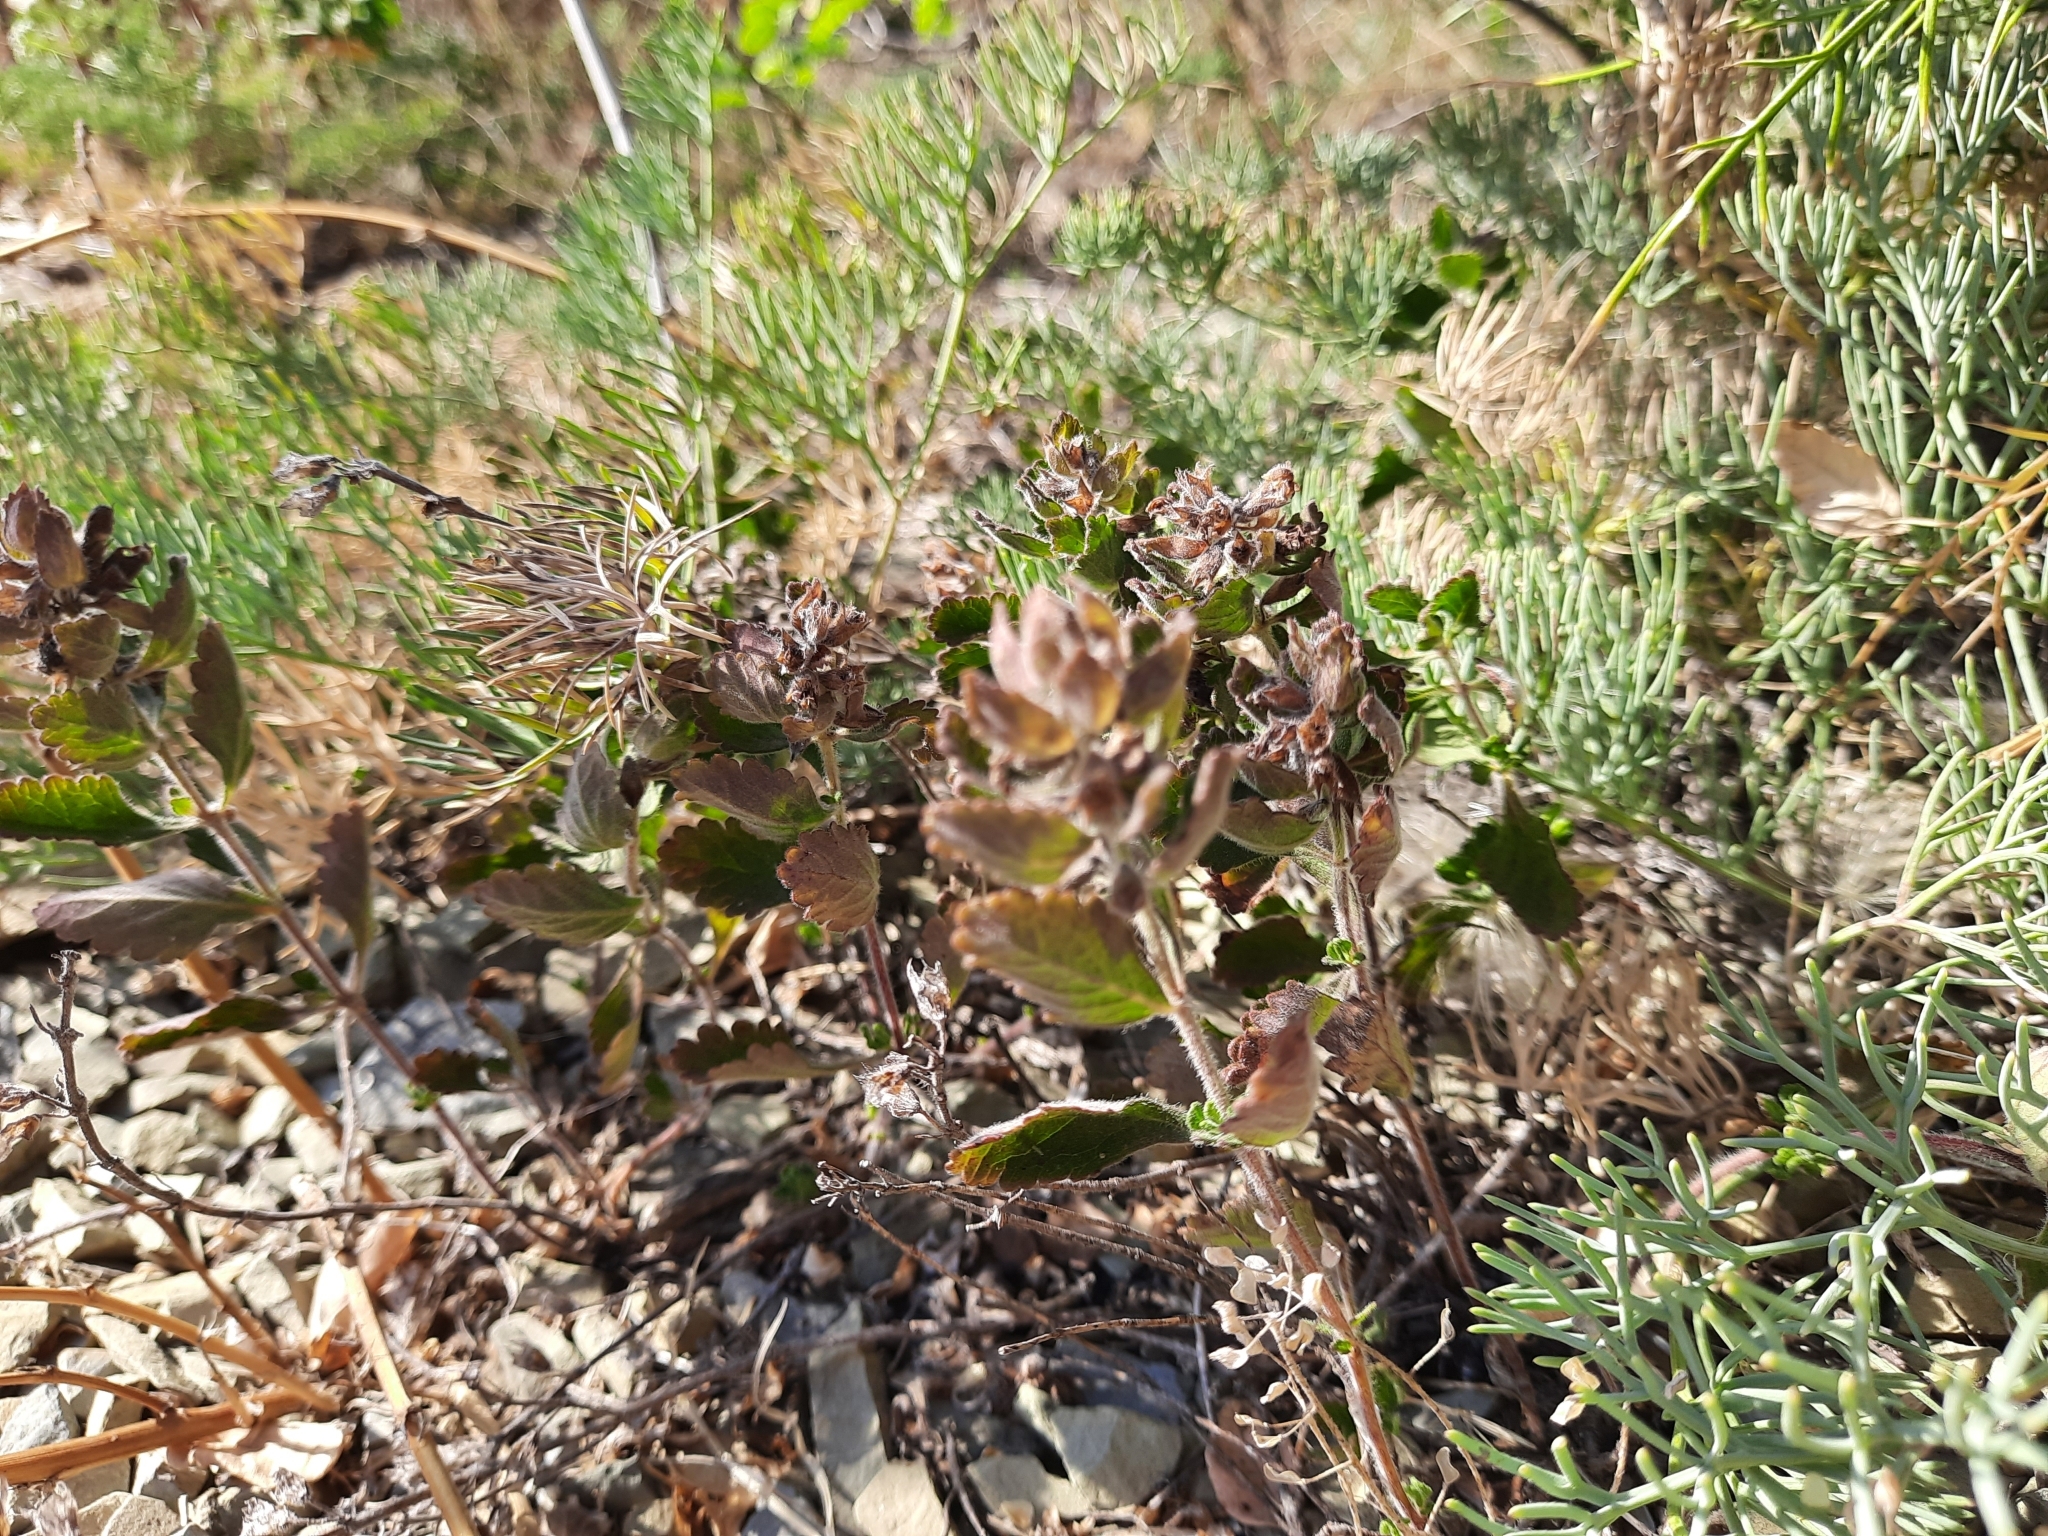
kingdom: Plantae
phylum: Tracheophyta
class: Magnoliopsida
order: Lamiales
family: Lamiaceae
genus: Teucrium
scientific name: Teucrium chamaedrys
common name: Wall germander
